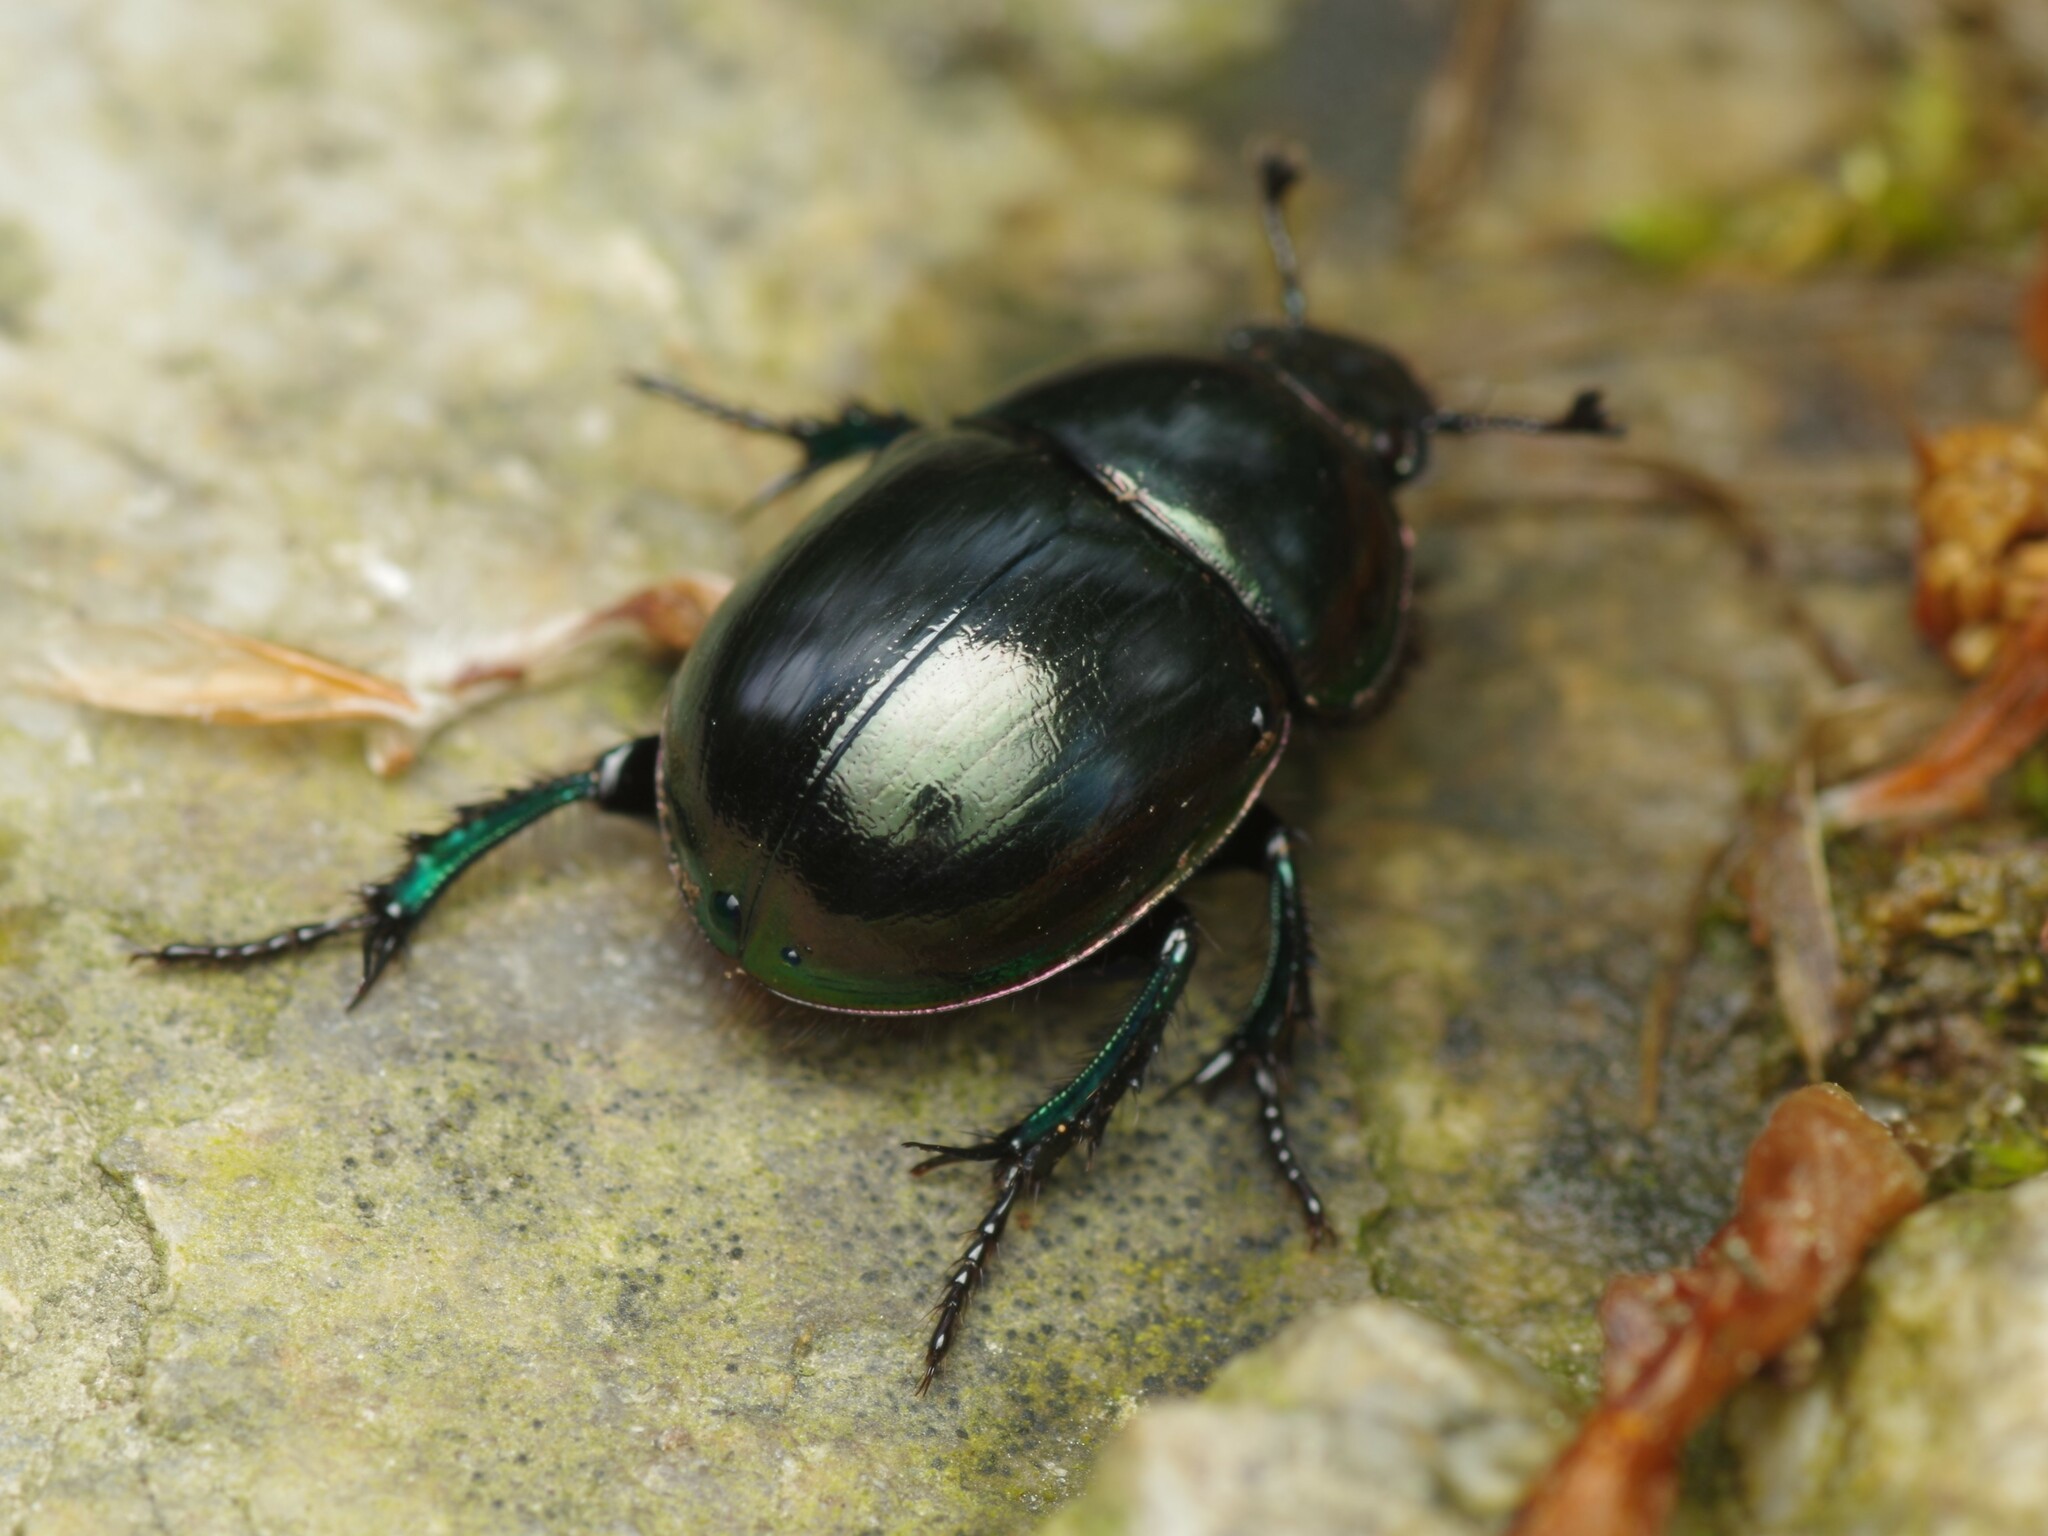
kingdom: Animalia
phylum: Arthropoda
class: Insecta
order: Coleoptera
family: Geotrupidae
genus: Trypocopris
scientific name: Trypocopris pyrenaeus
